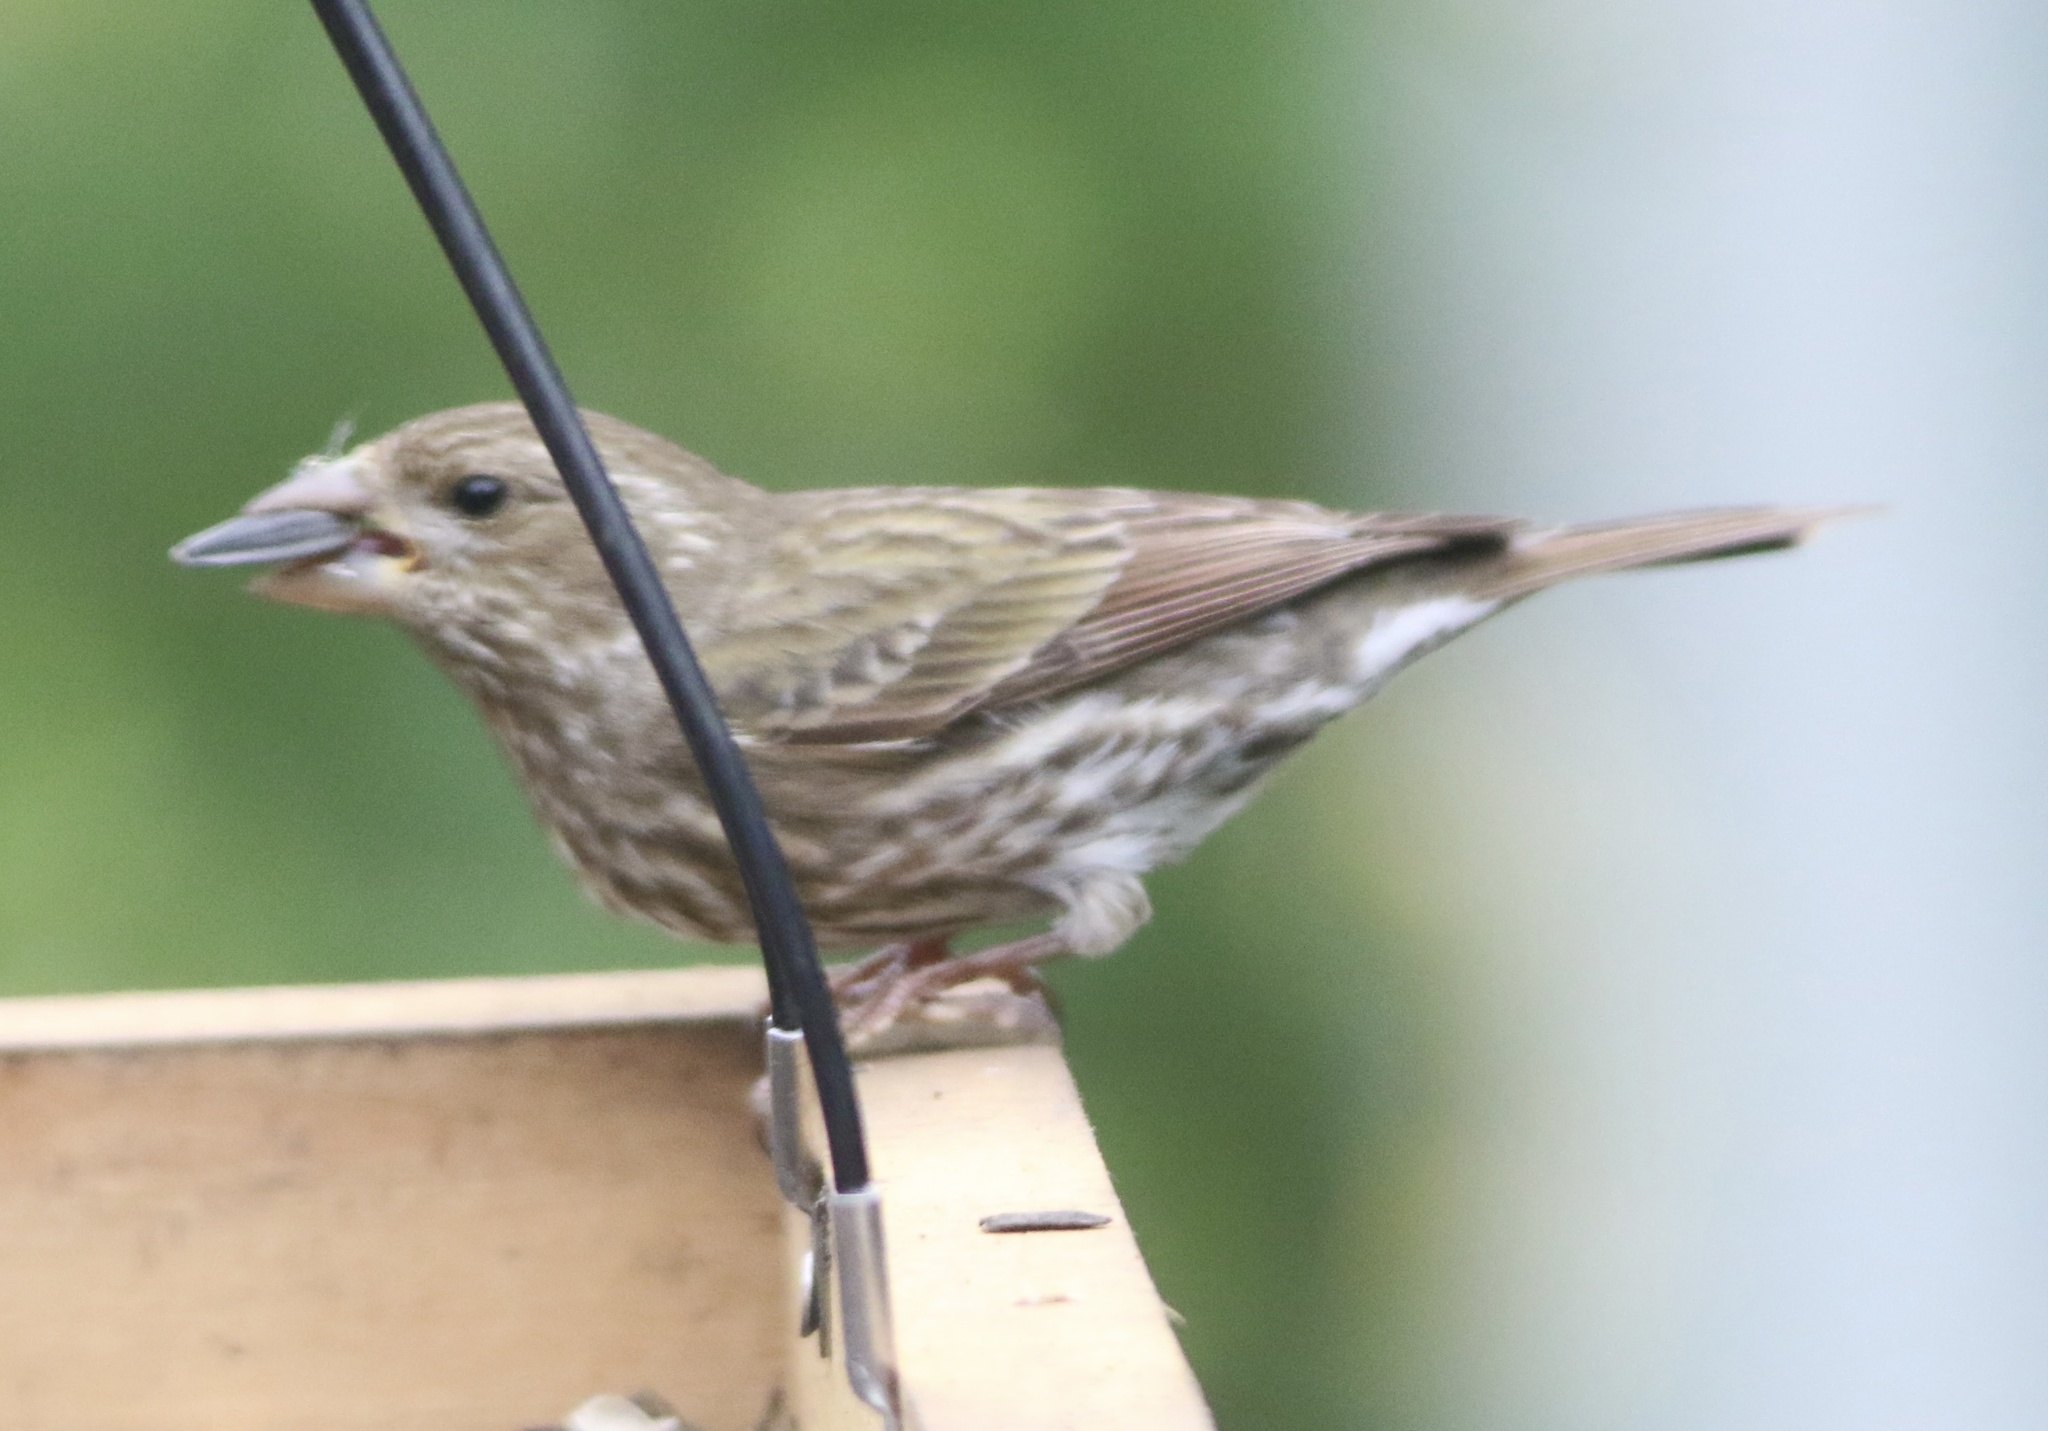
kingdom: Animalia
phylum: Chordata
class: Aves
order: Passeriformes
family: Fringillidae
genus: Haemorhous
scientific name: Haemorhous purpureus
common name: Purple finch
